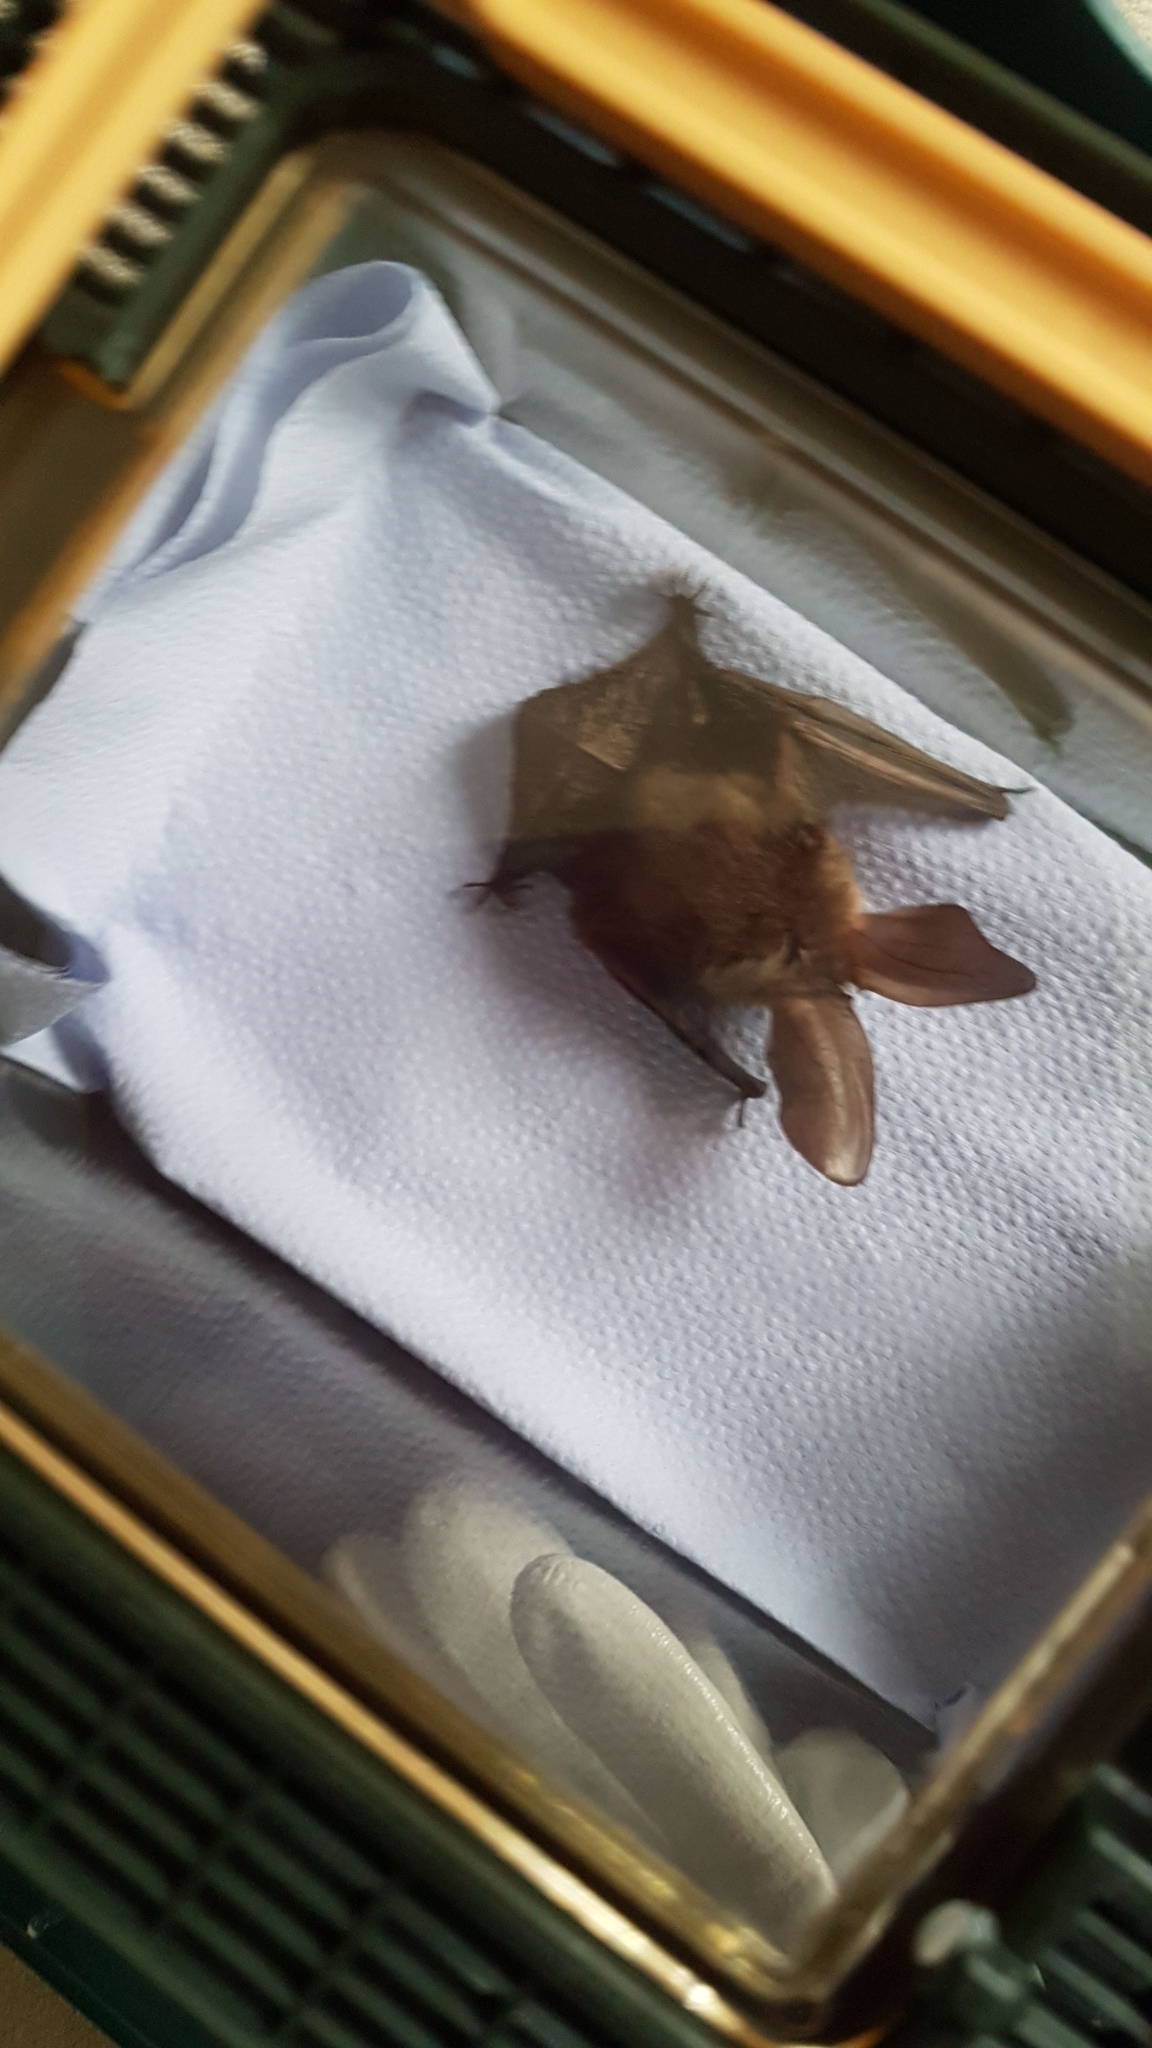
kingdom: Animalia
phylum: Chordata
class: Mammalia
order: Chiroptera
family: Vespertilionidae
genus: Plecotus
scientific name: Plecotus auritus
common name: Brown long-eared bat
